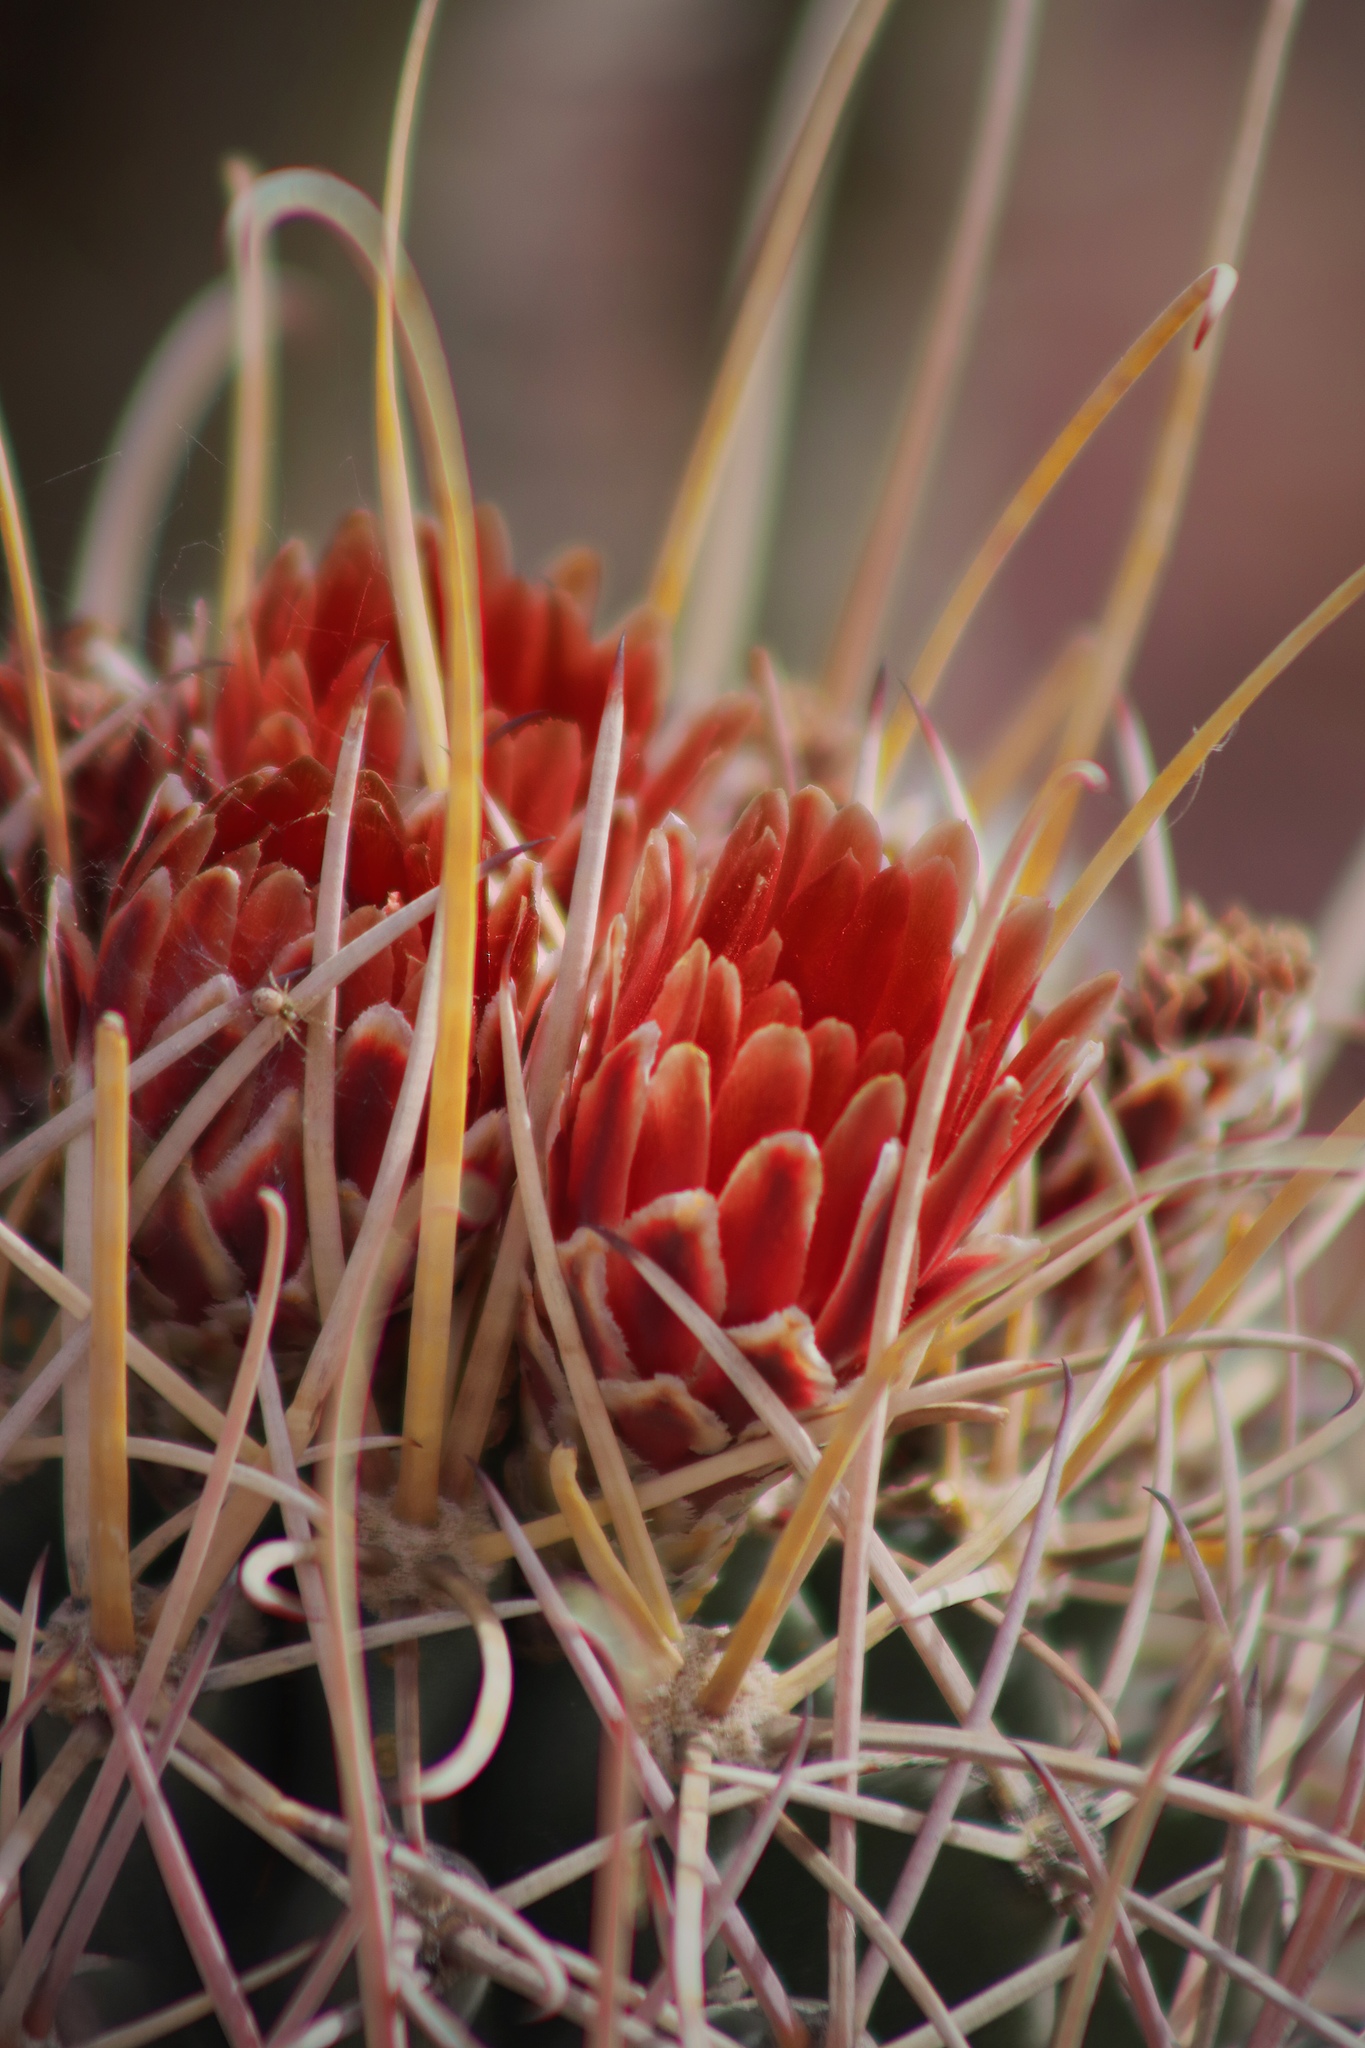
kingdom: Plantae
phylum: Tracheophyta
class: Magnoliopsida
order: Caryophyllales
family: Cactaceae
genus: Ferocactus
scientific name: Ferocactus uncinatus
